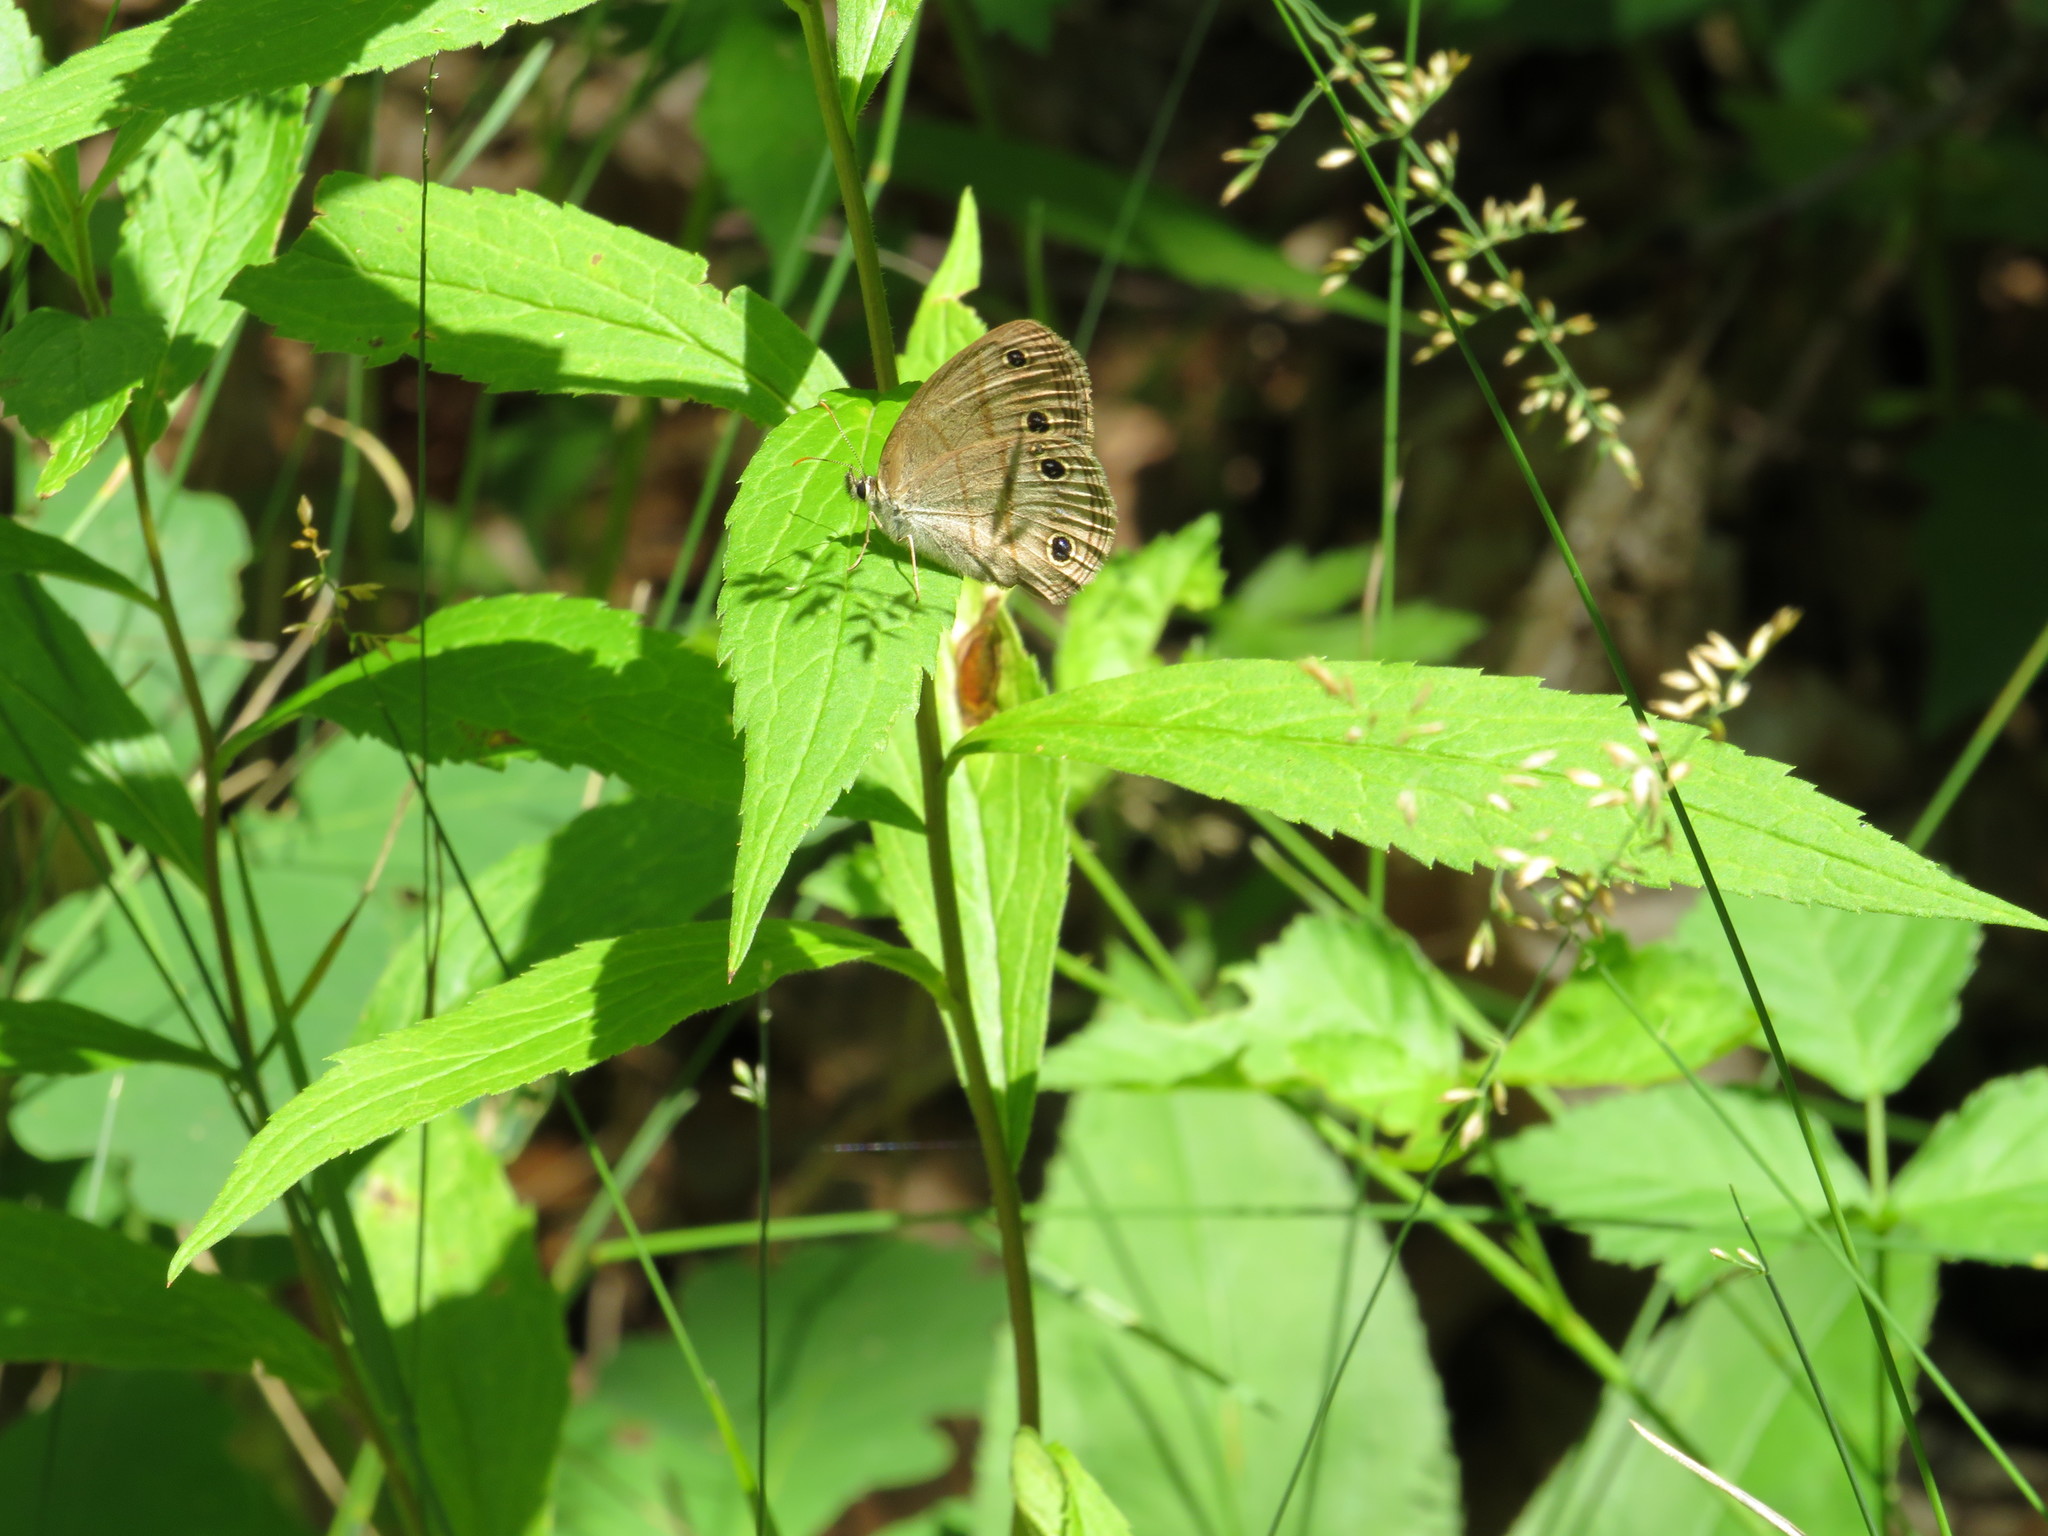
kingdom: Animalia
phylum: Arthropoda
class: Insecta
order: Lepidoptera
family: Nymphalidae
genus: Euptychia
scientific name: Euptychia cymela
